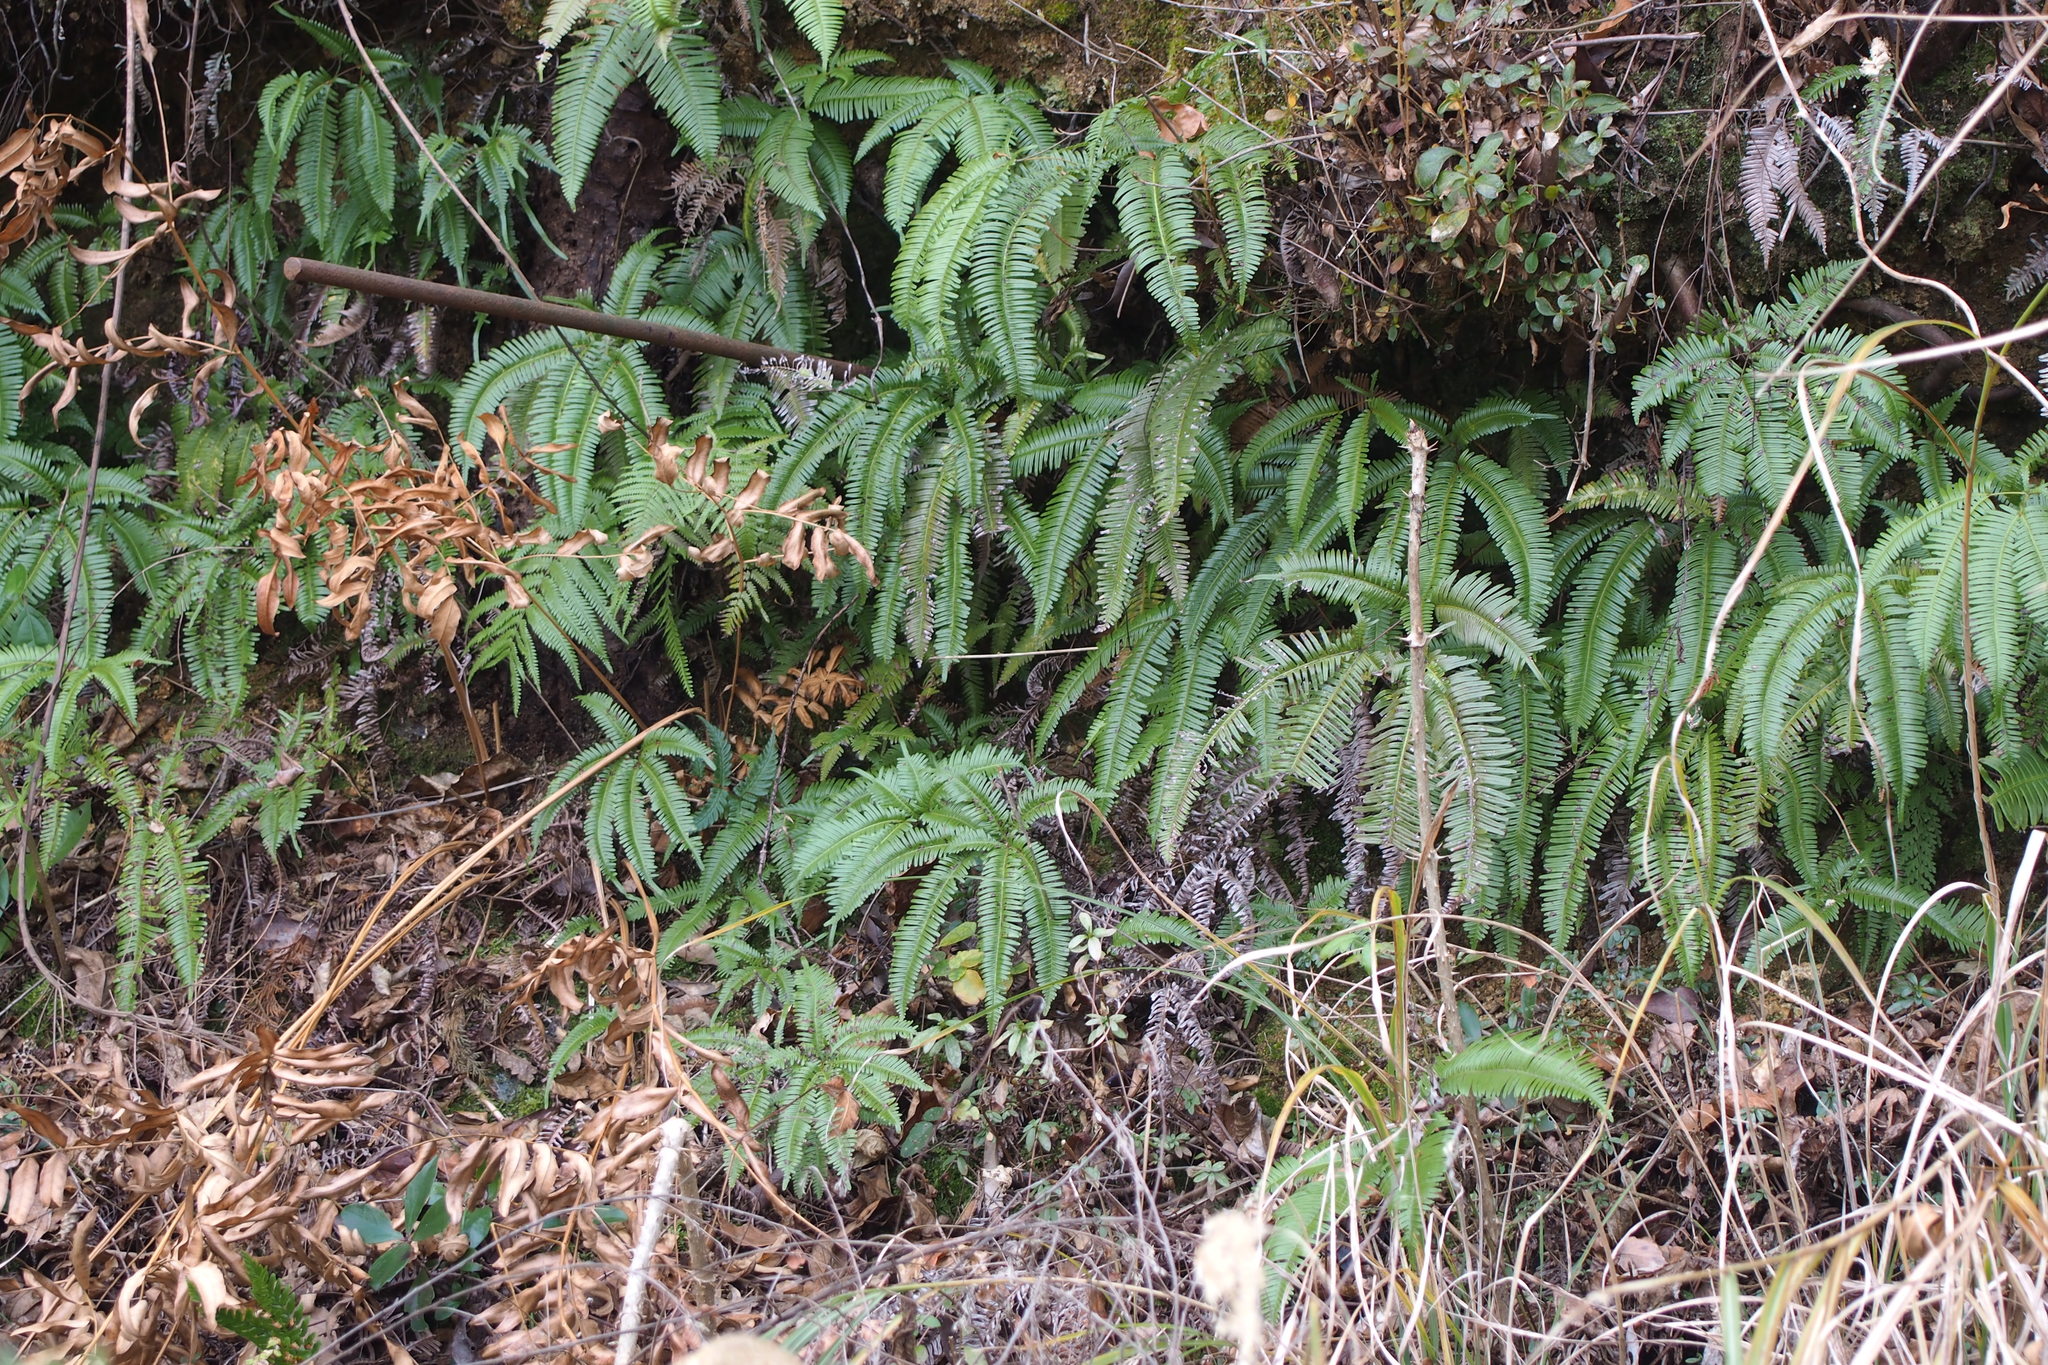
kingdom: Plantae
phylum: Tracheophyta
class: Polypodiopsida
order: Gleicheniales
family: Gleicheniaceae
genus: Dicranopteris
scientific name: Dicranopteris linearis
